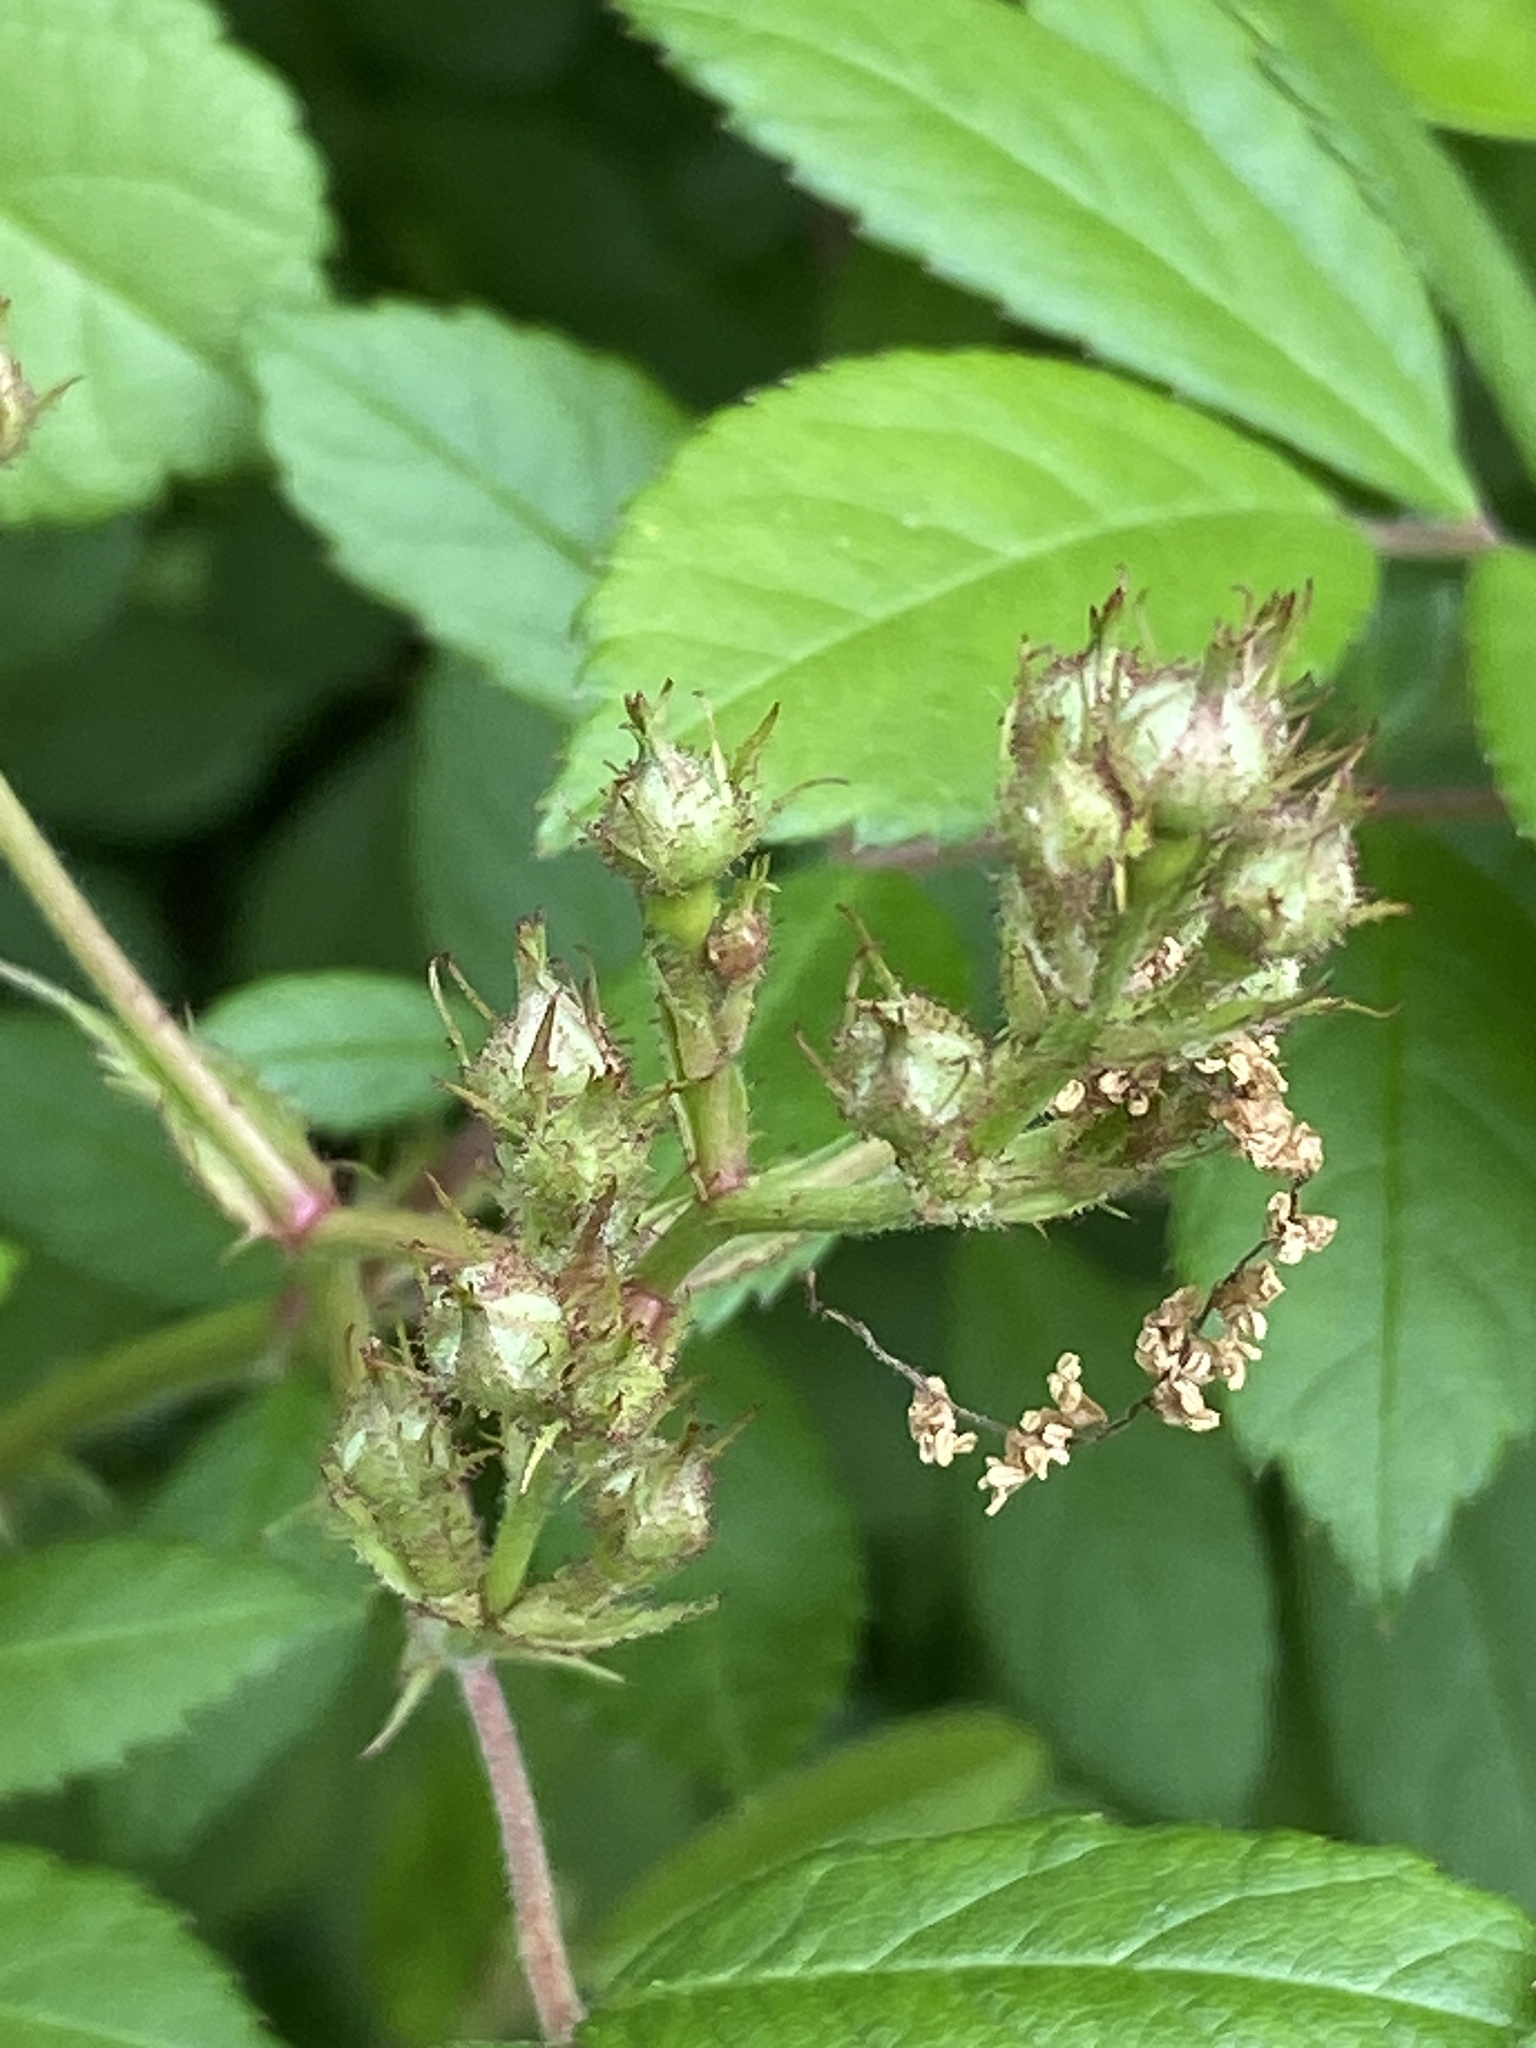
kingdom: Plantae
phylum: Tracheophyta
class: Magnoliopsida
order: Rosales
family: Rosaceae
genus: Rosa
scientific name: Rosa multiflora
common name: Multiflora rose
